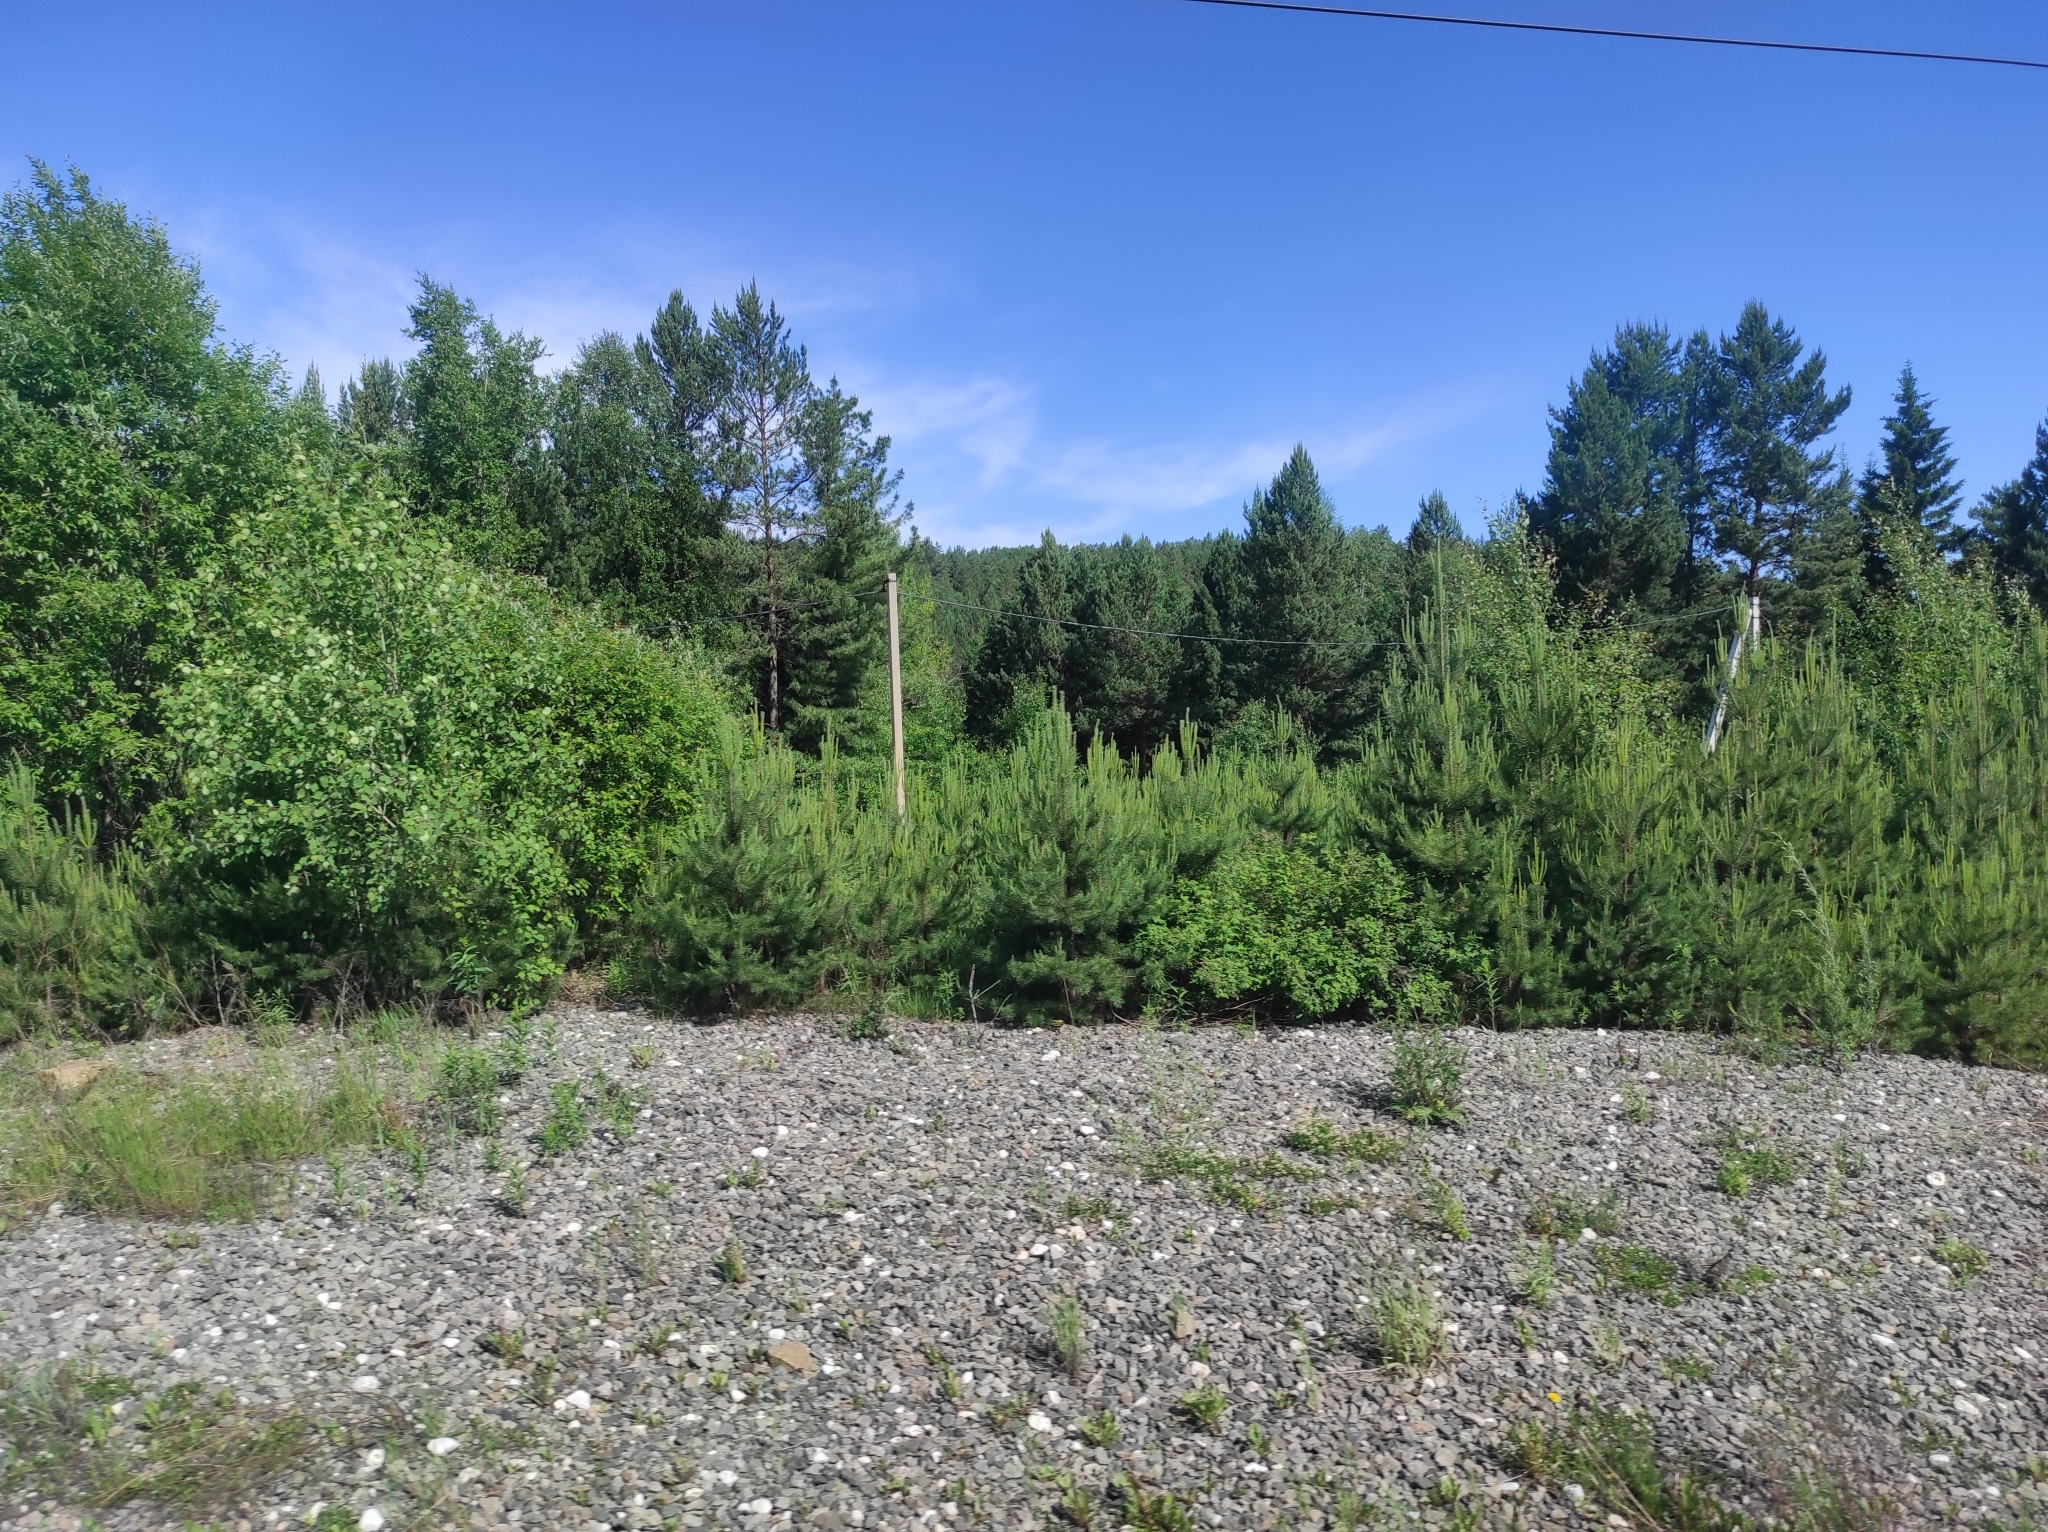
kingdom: Plantae
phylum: Tracheophyta
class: Pinopsida
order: Pinales
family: Pinaceae
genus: Pinus
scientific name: Pinus sibirica
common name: Siberian pine
